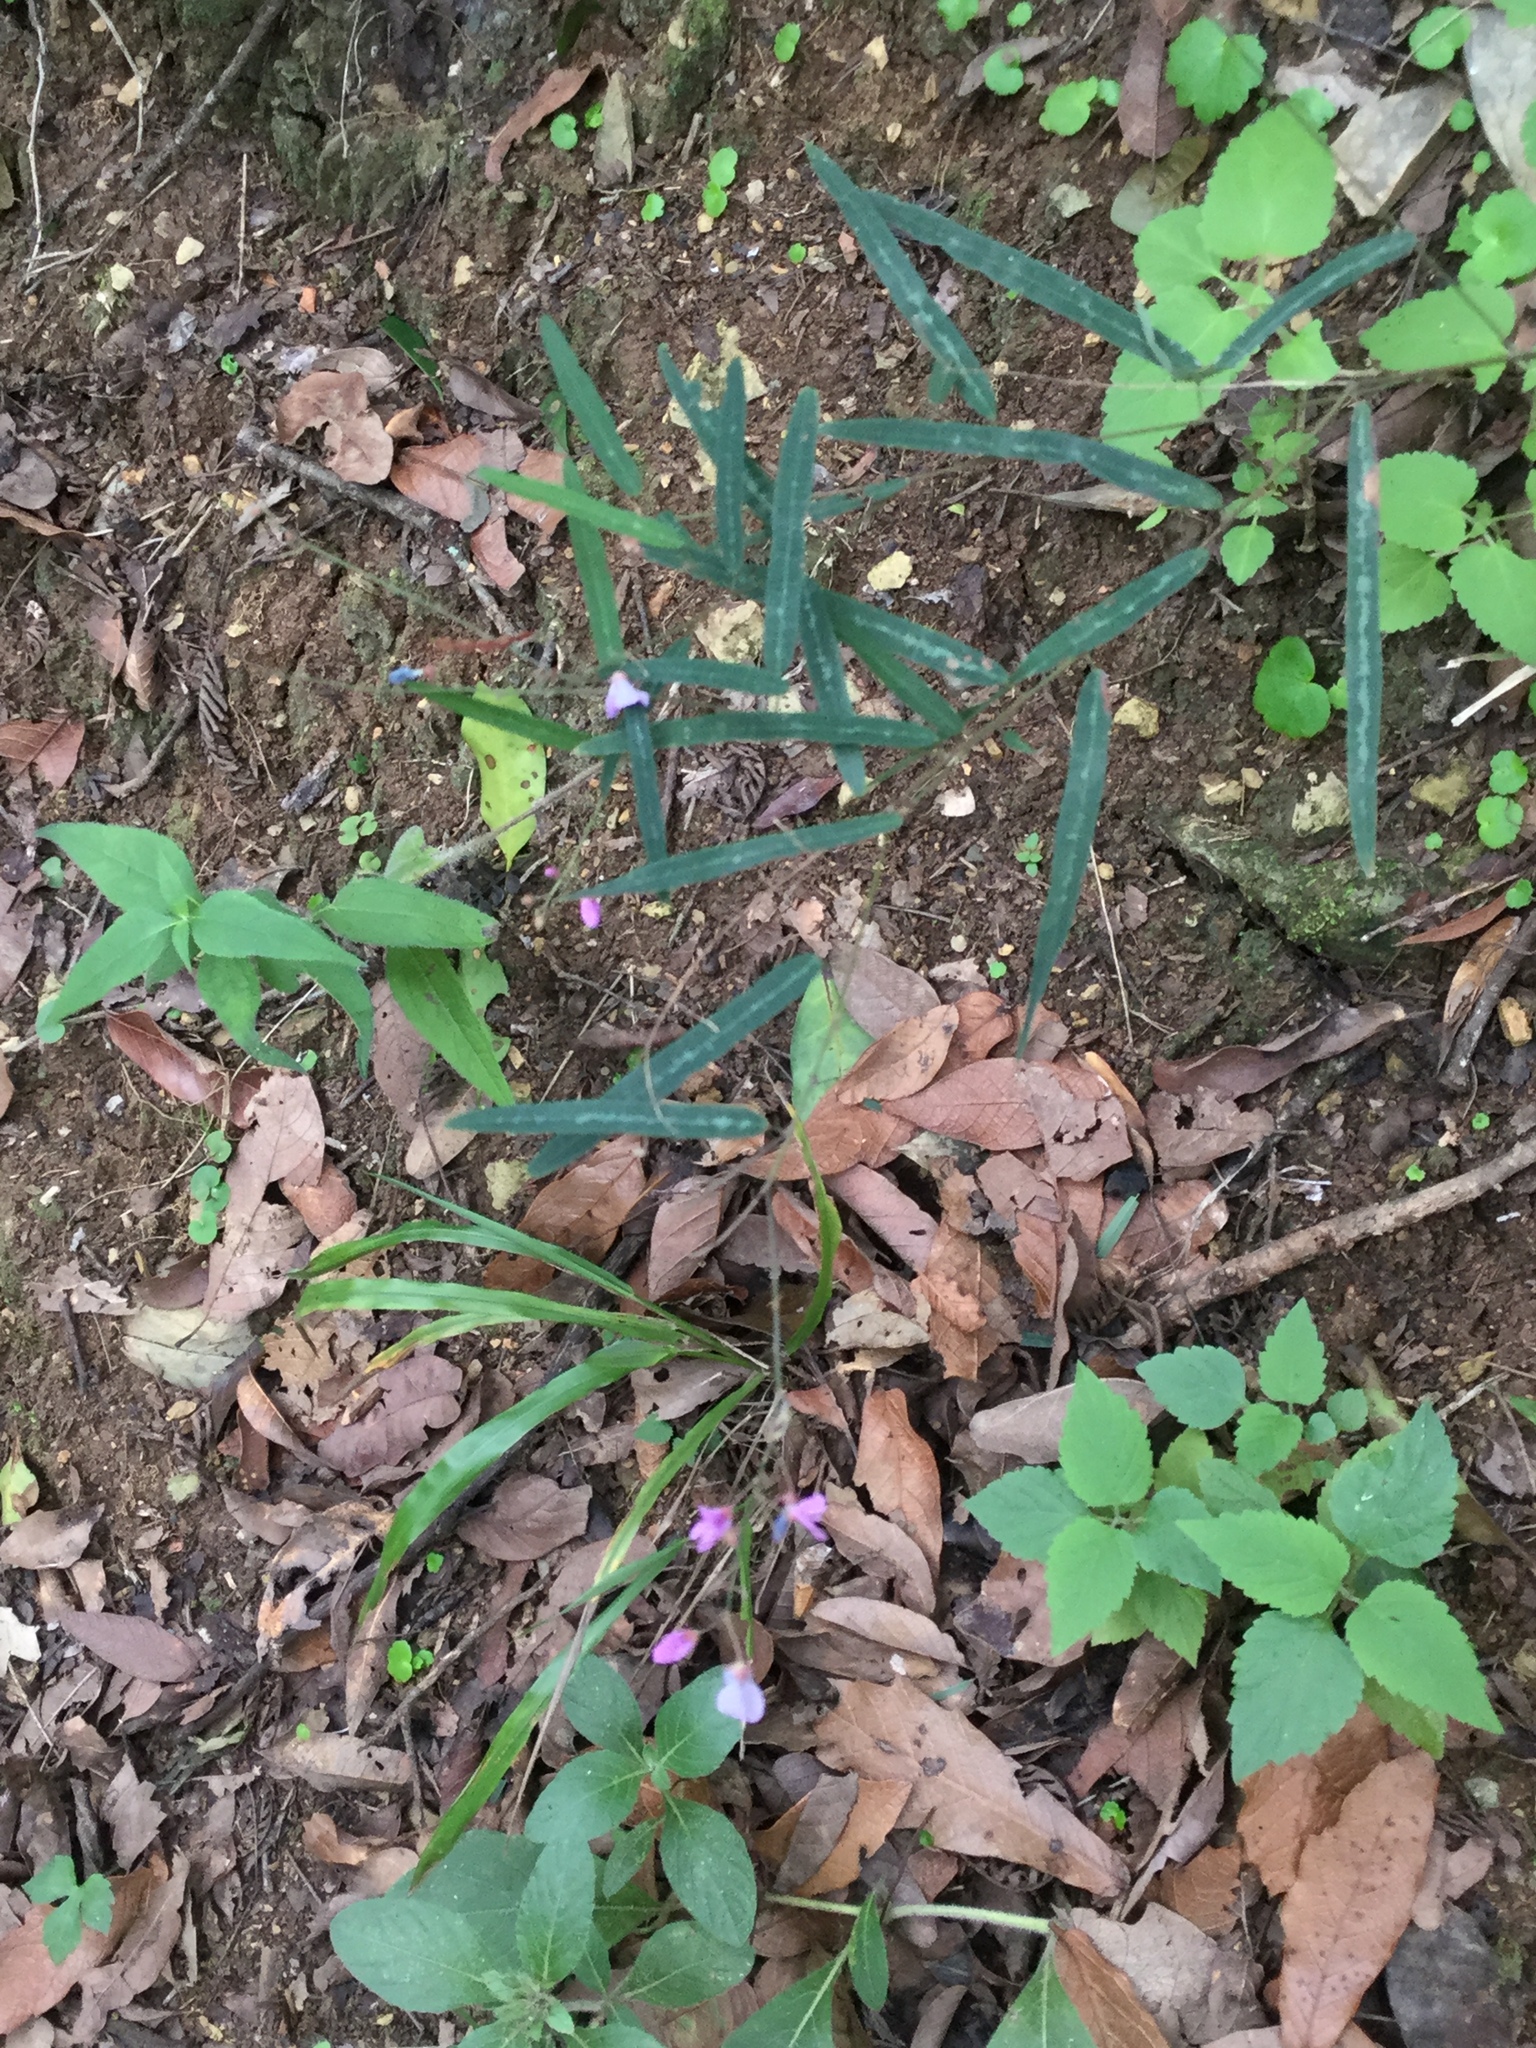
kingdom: Plantae
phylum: Tracheophyta
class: Magnoliopsida
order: Fabales
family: Fabaceae
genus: Desmodium
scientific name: Desmodium psilophyllum
